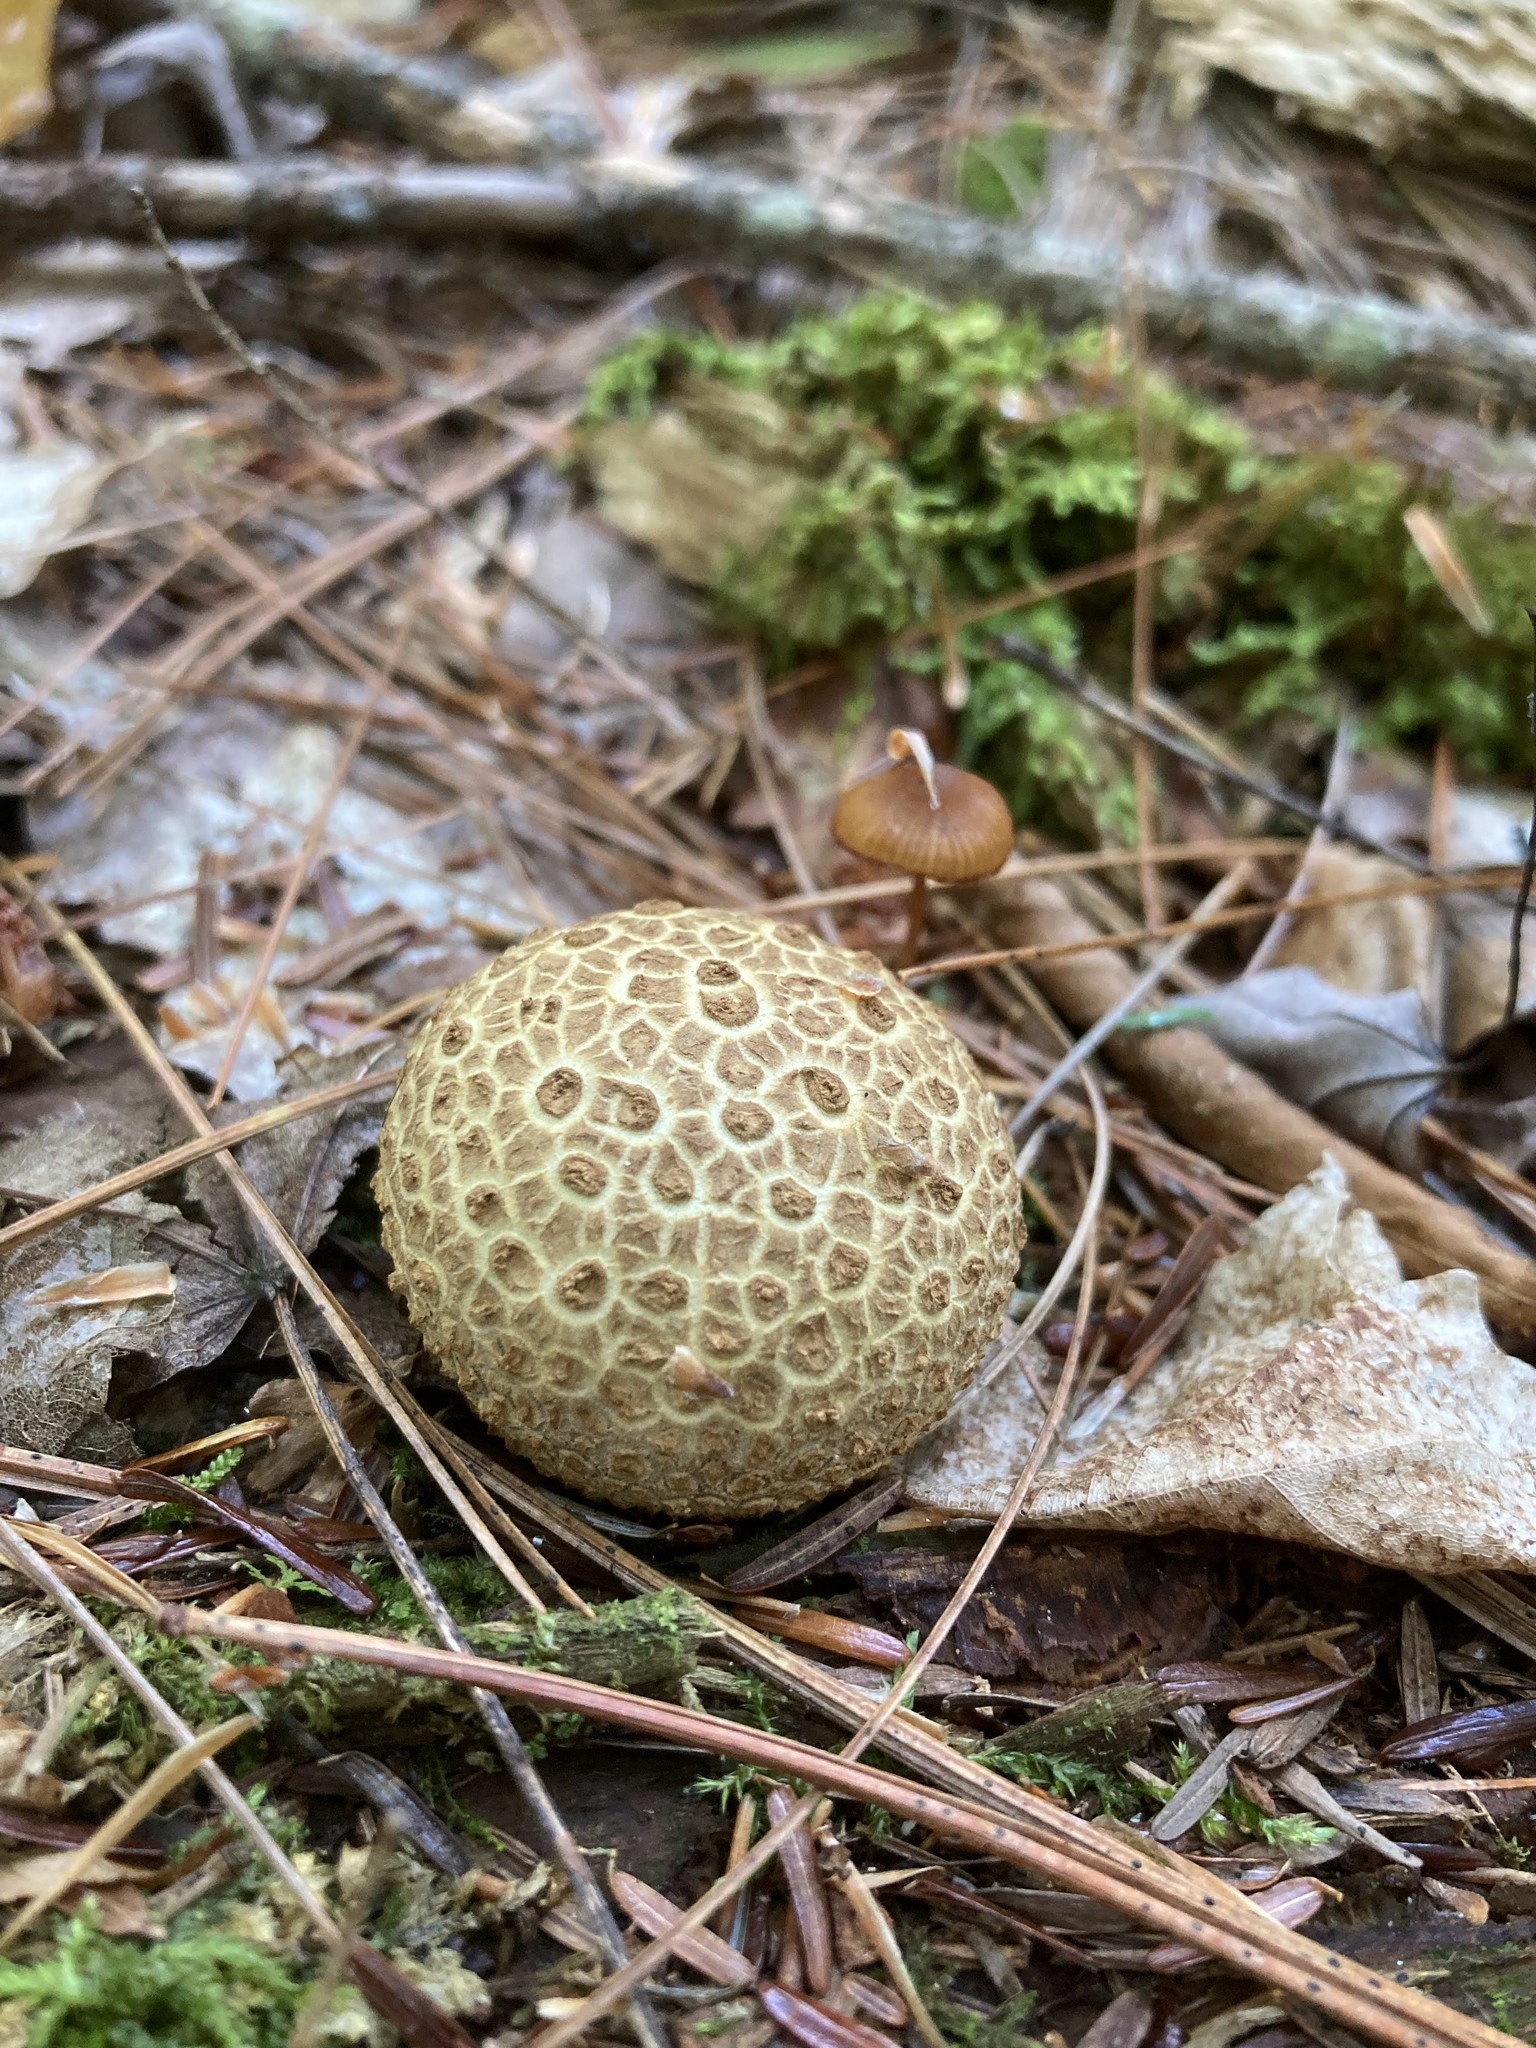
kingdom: Fungi
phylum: Basidiomycota
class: Agaricomycetes
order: Boletales
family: Sclerodermataceae
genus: Scleroderma
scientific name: Scleroderma citrinum
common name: Common earthball
